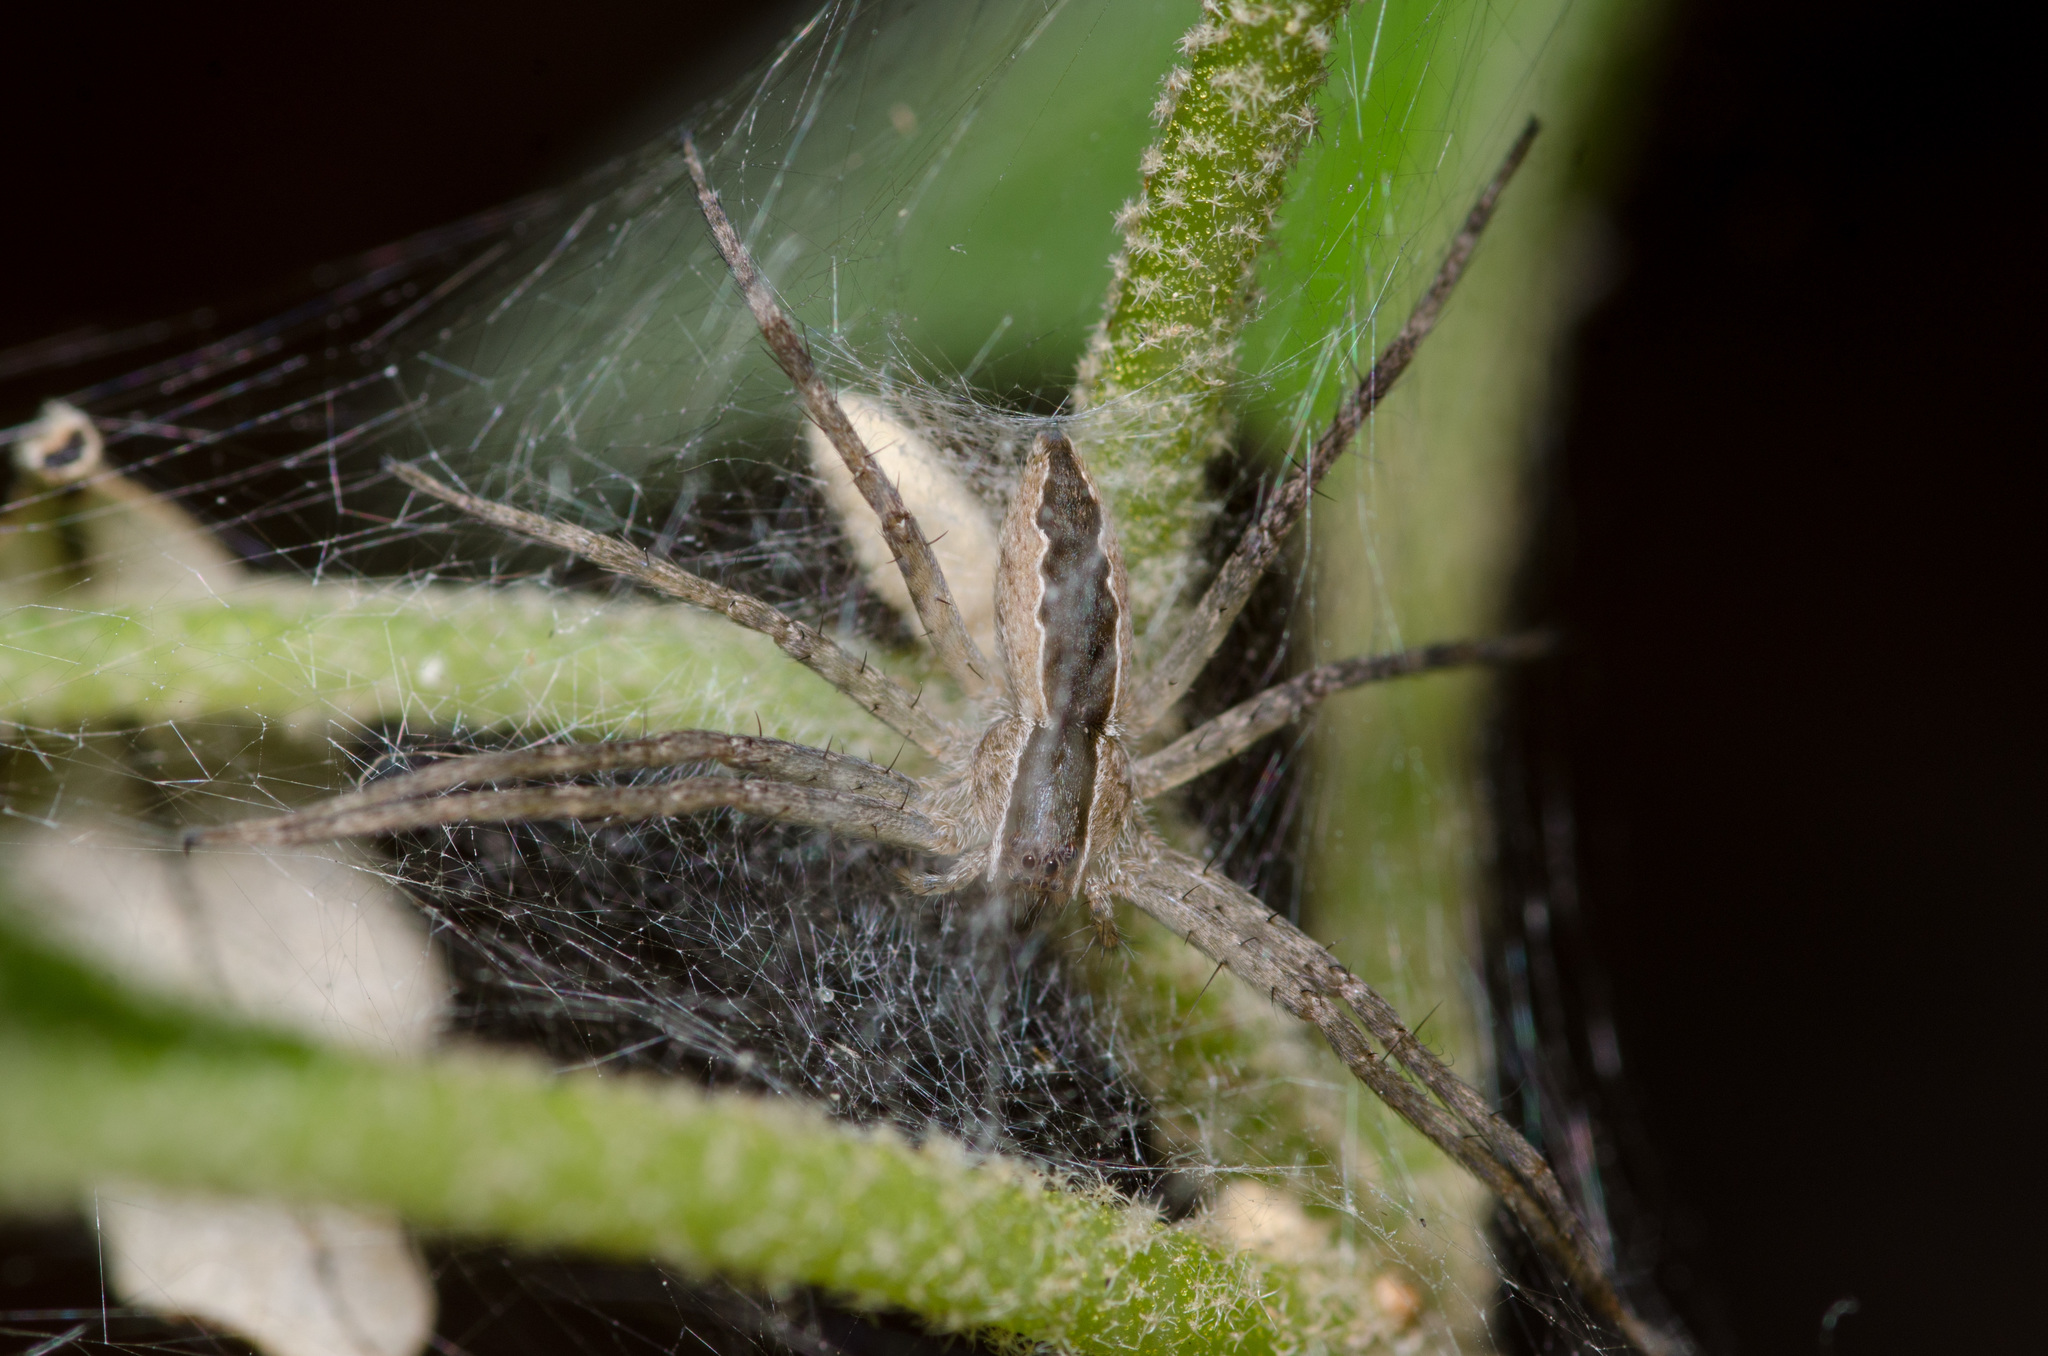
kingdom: Animalia
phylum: Arthropoda
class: Arachnida
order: Araneae
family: Pisauridae
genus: Pisaurina
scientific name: Pisaurina mira
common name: American nursery web spider
